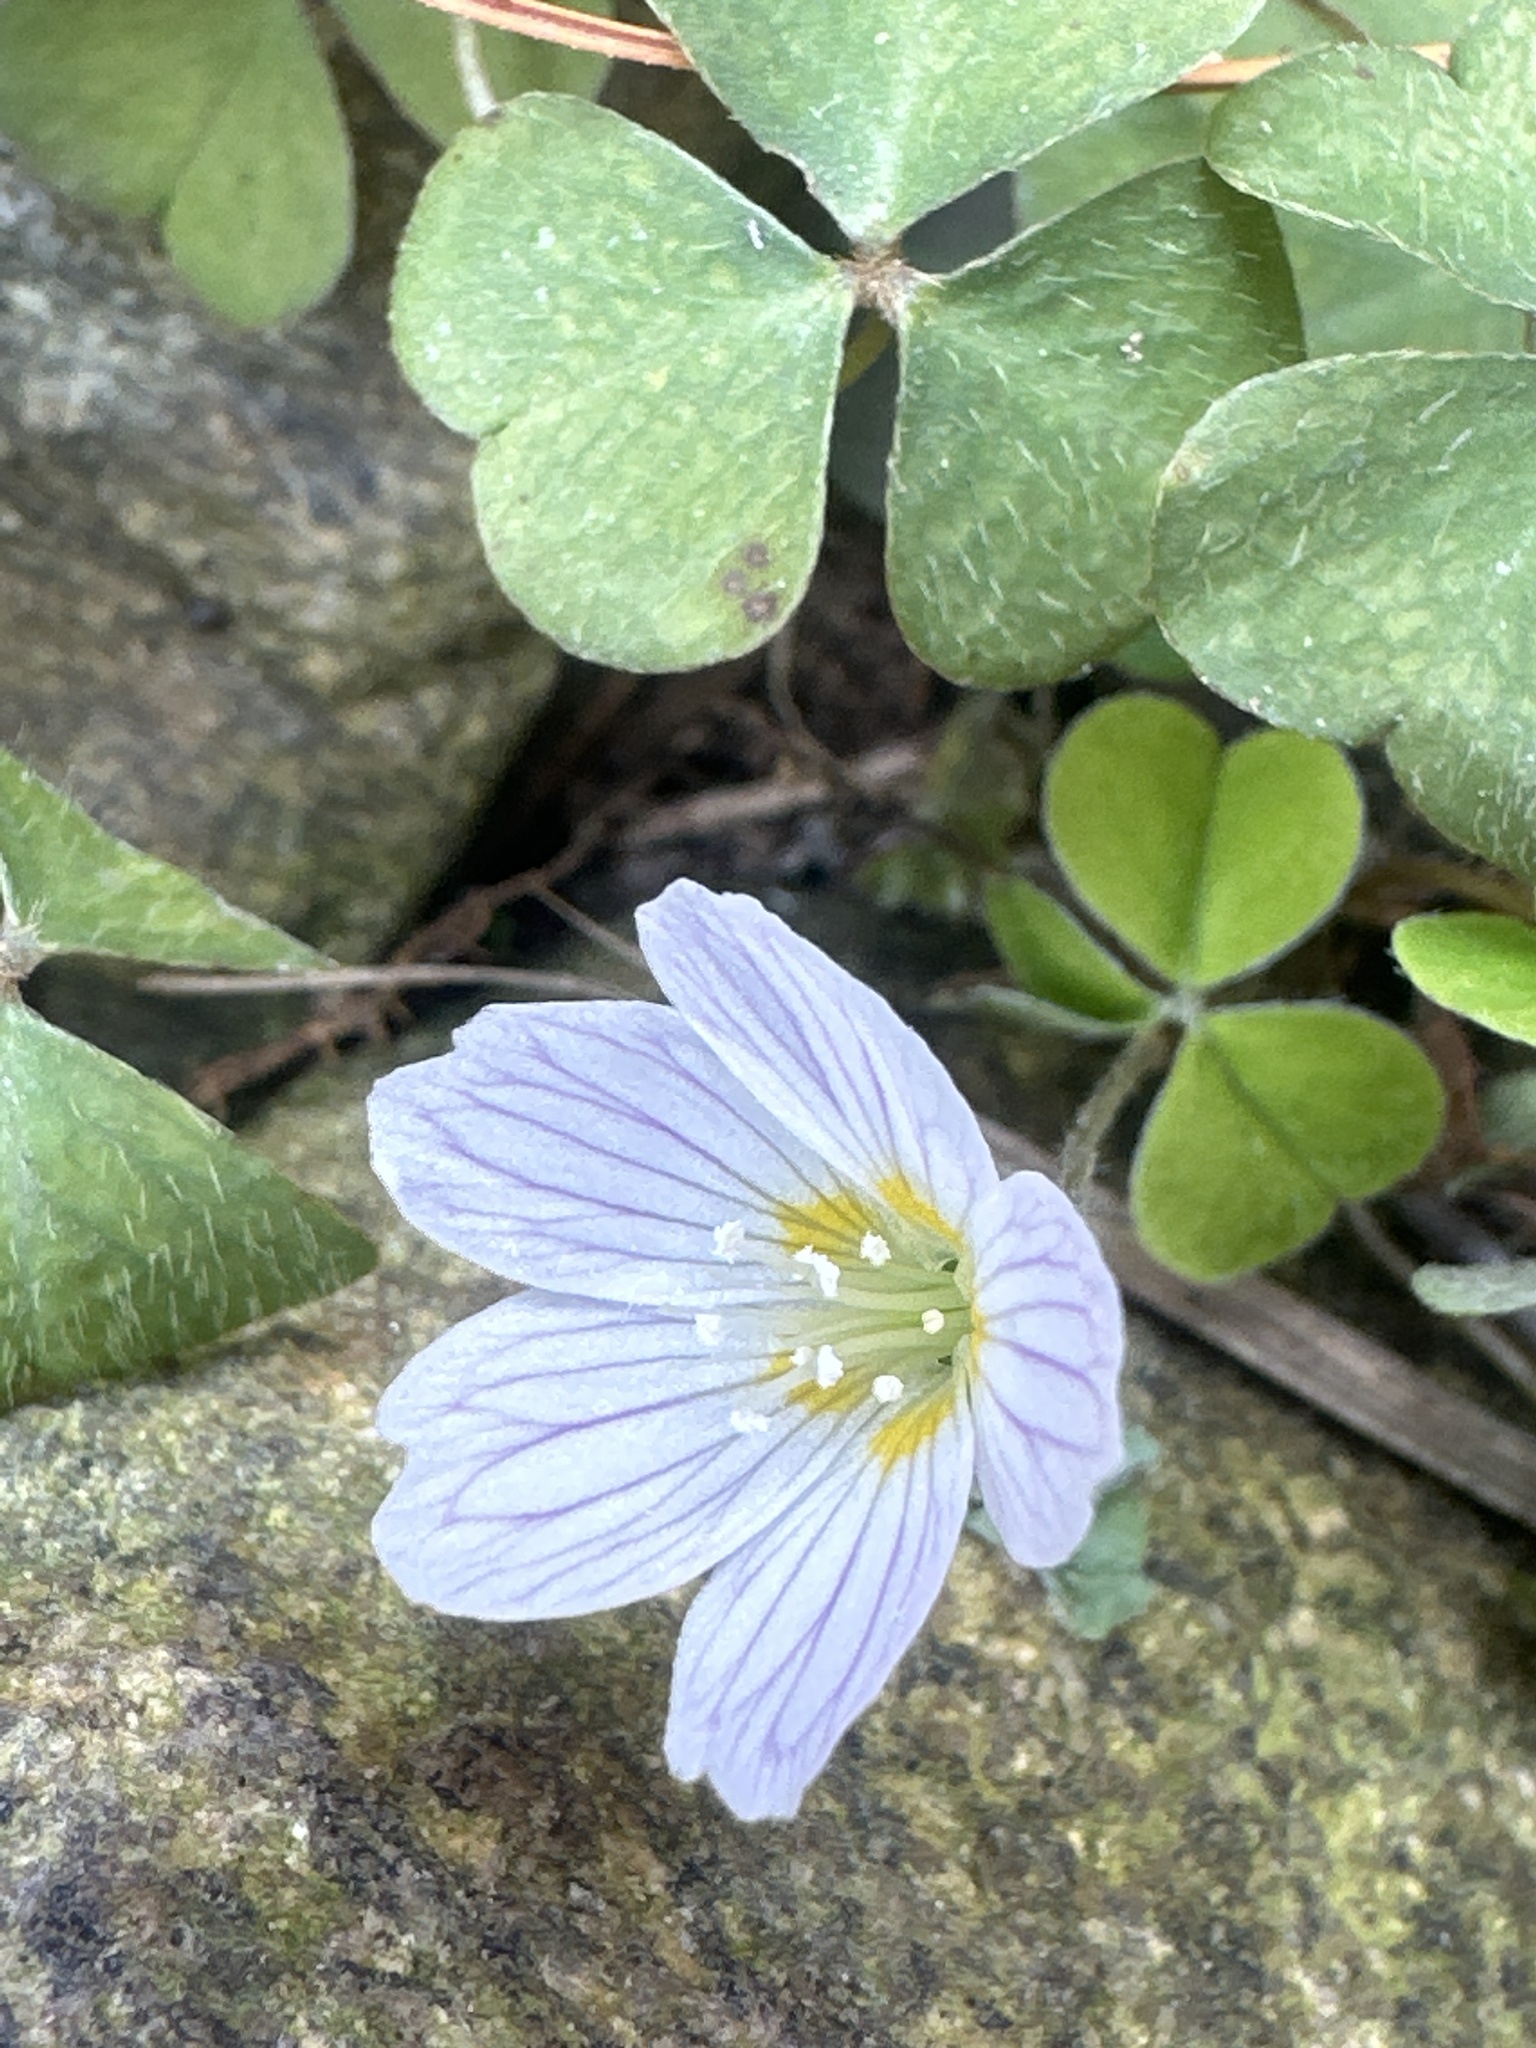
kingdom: Plantae
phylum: Tracheophyta
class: Magnoliopsida
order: Oxalidales
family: Oxalidaceae
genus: Oxalis
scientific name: Oxalis acetosella
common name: Wood-sorrel
